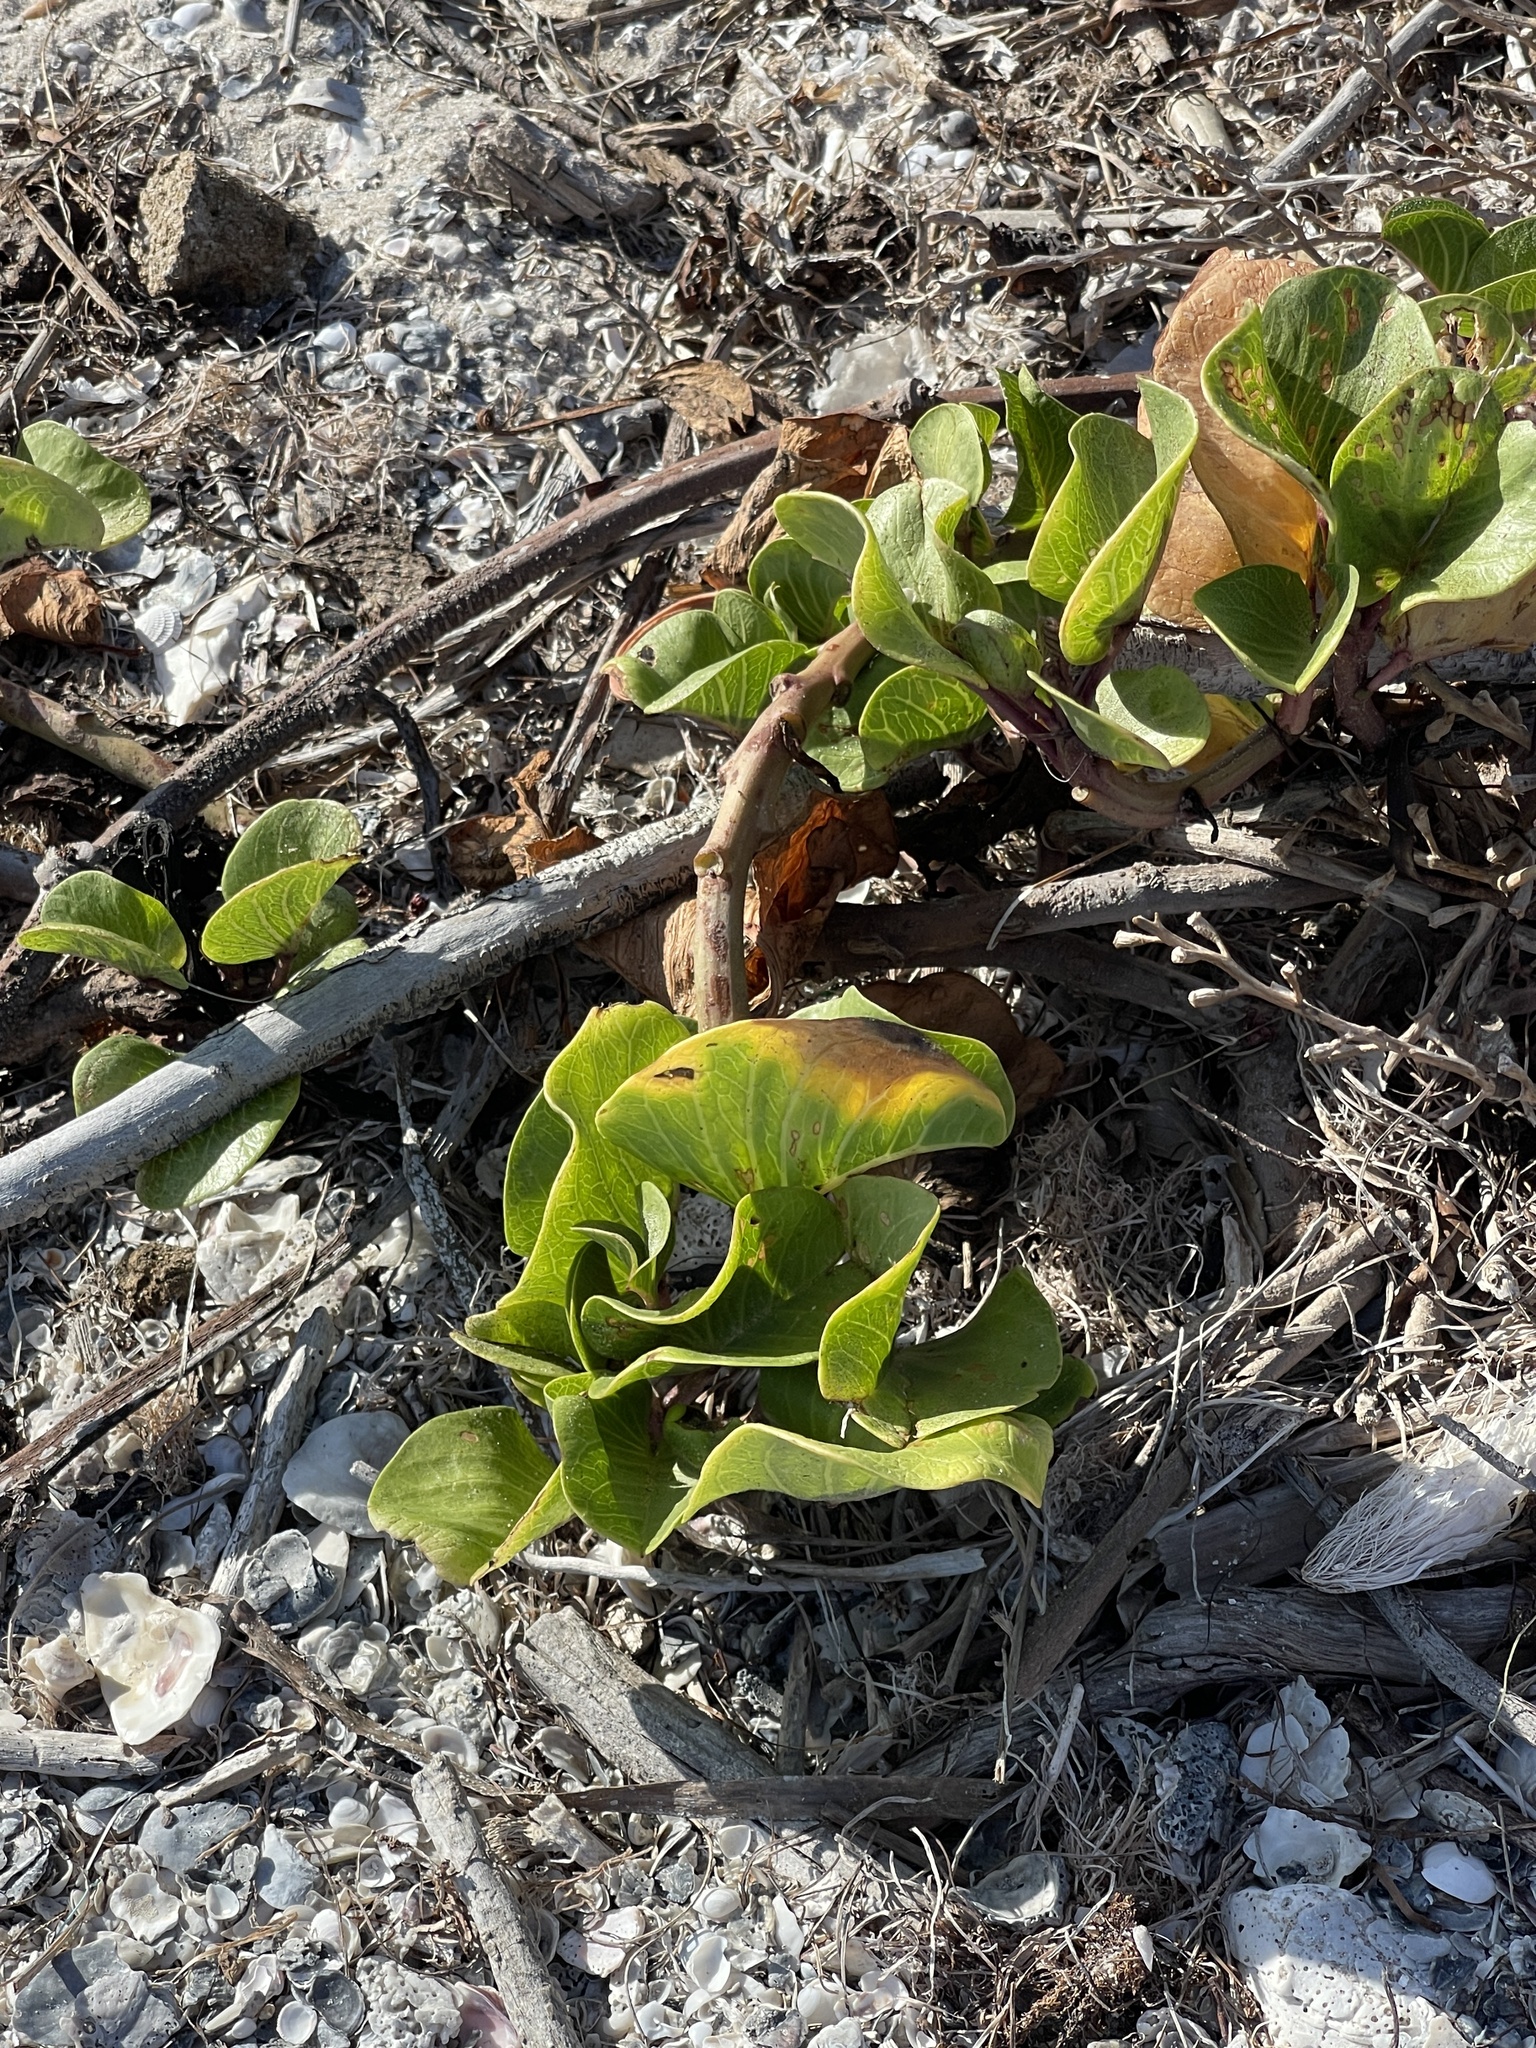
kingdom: Plantae
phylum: Tracheophyta
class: Magnoliopsida
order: Solanales
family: Convolvulaceae
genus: Ipomoea
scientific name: Ipomoea pes-caprae
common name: Beach morning glory
